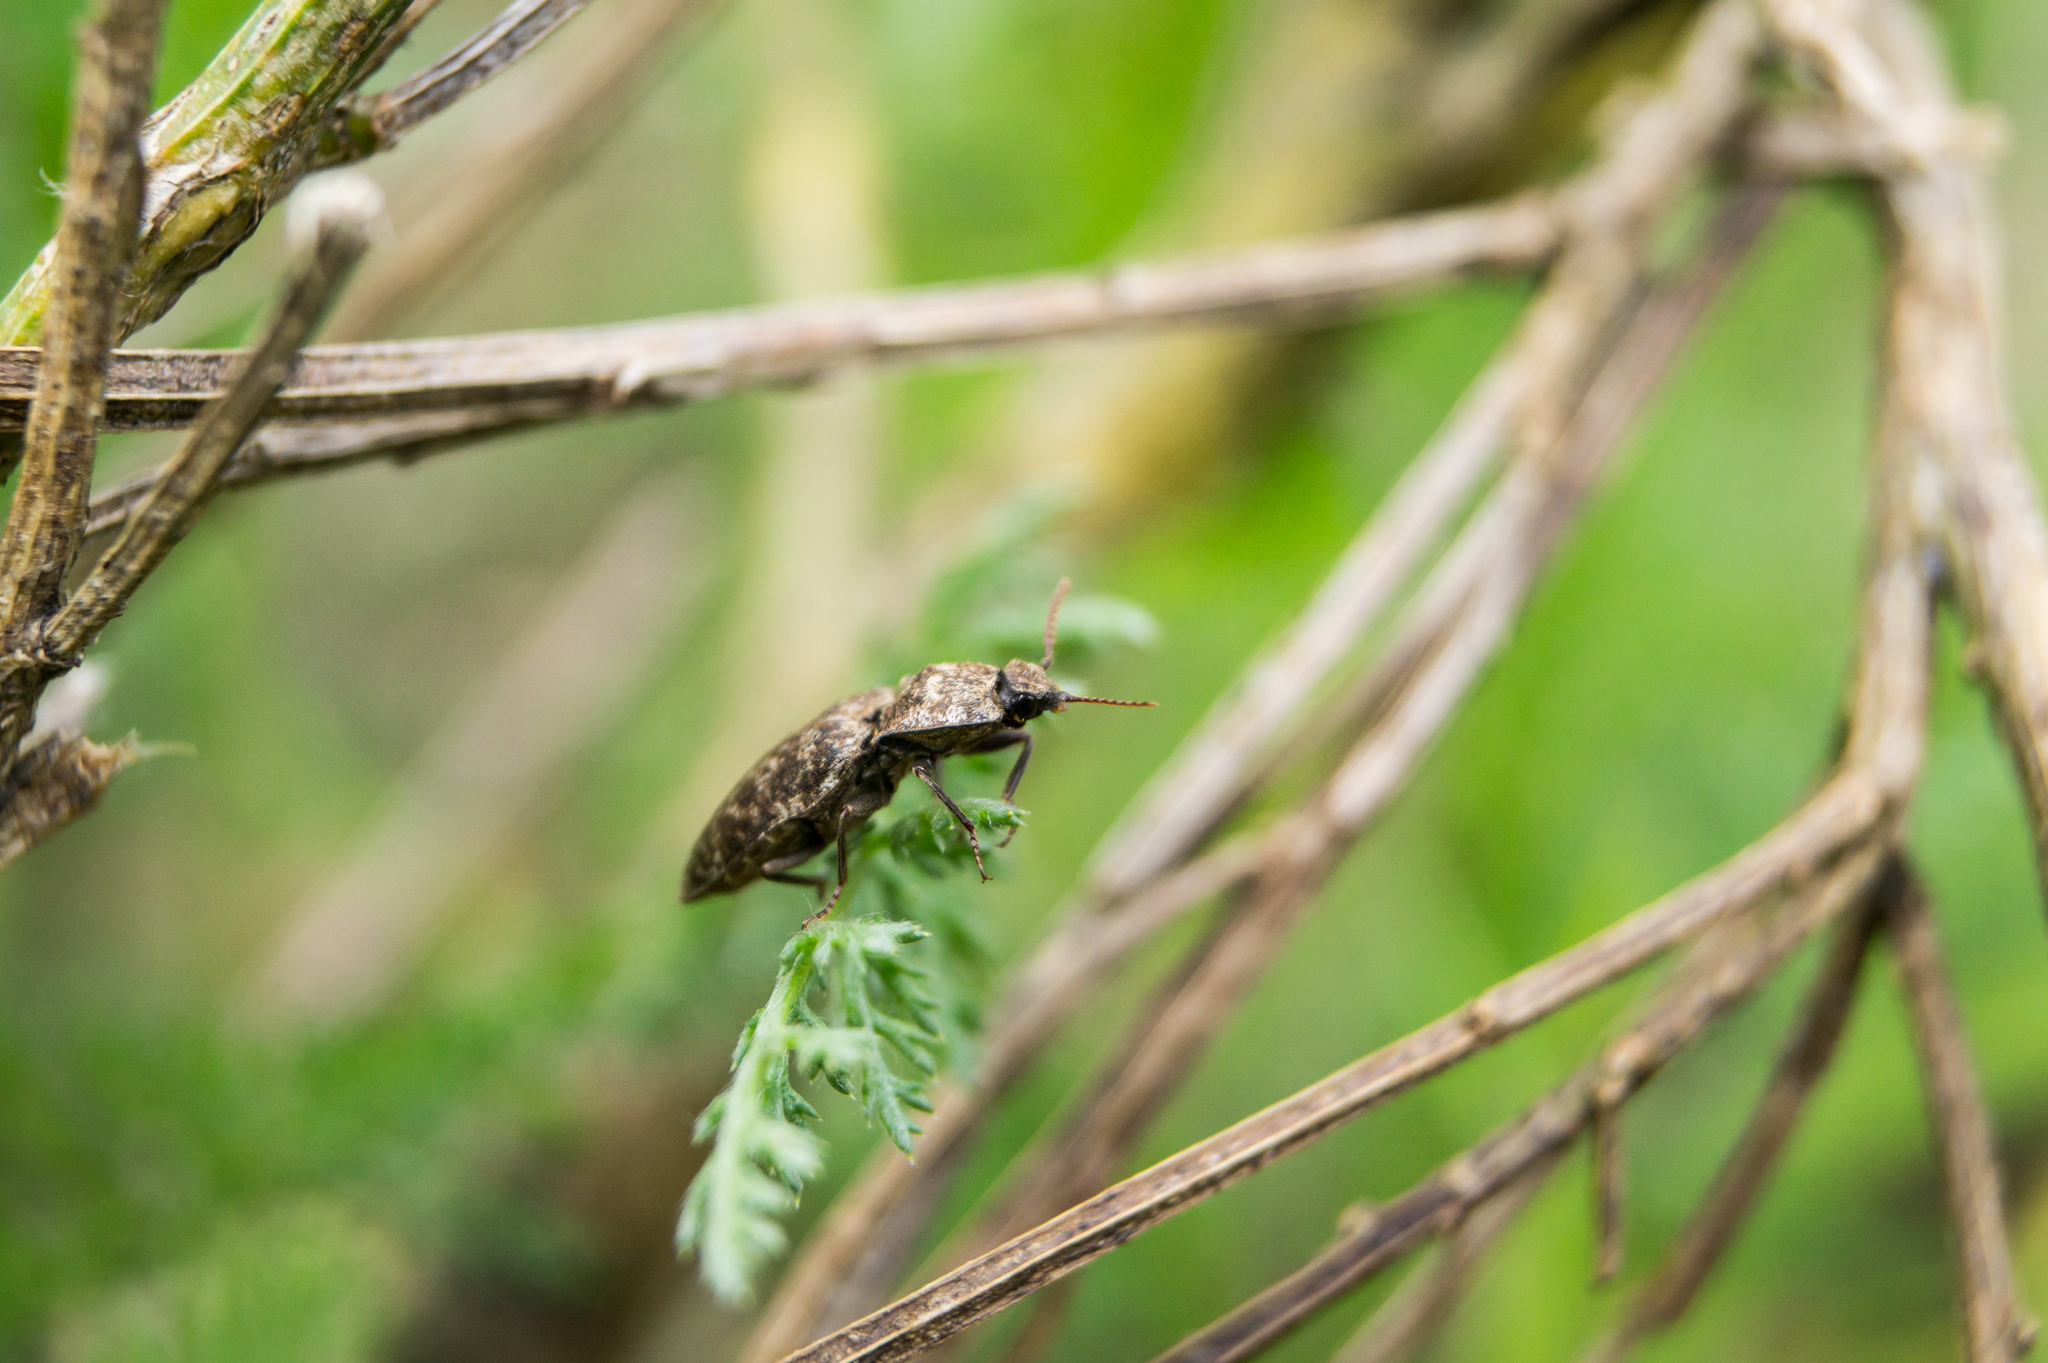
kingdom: Animalia
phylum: Arthropoda
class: Insecta
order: Coleoptera
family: Elateridae
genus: Agrypnus
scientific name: Agrypnus murinus
